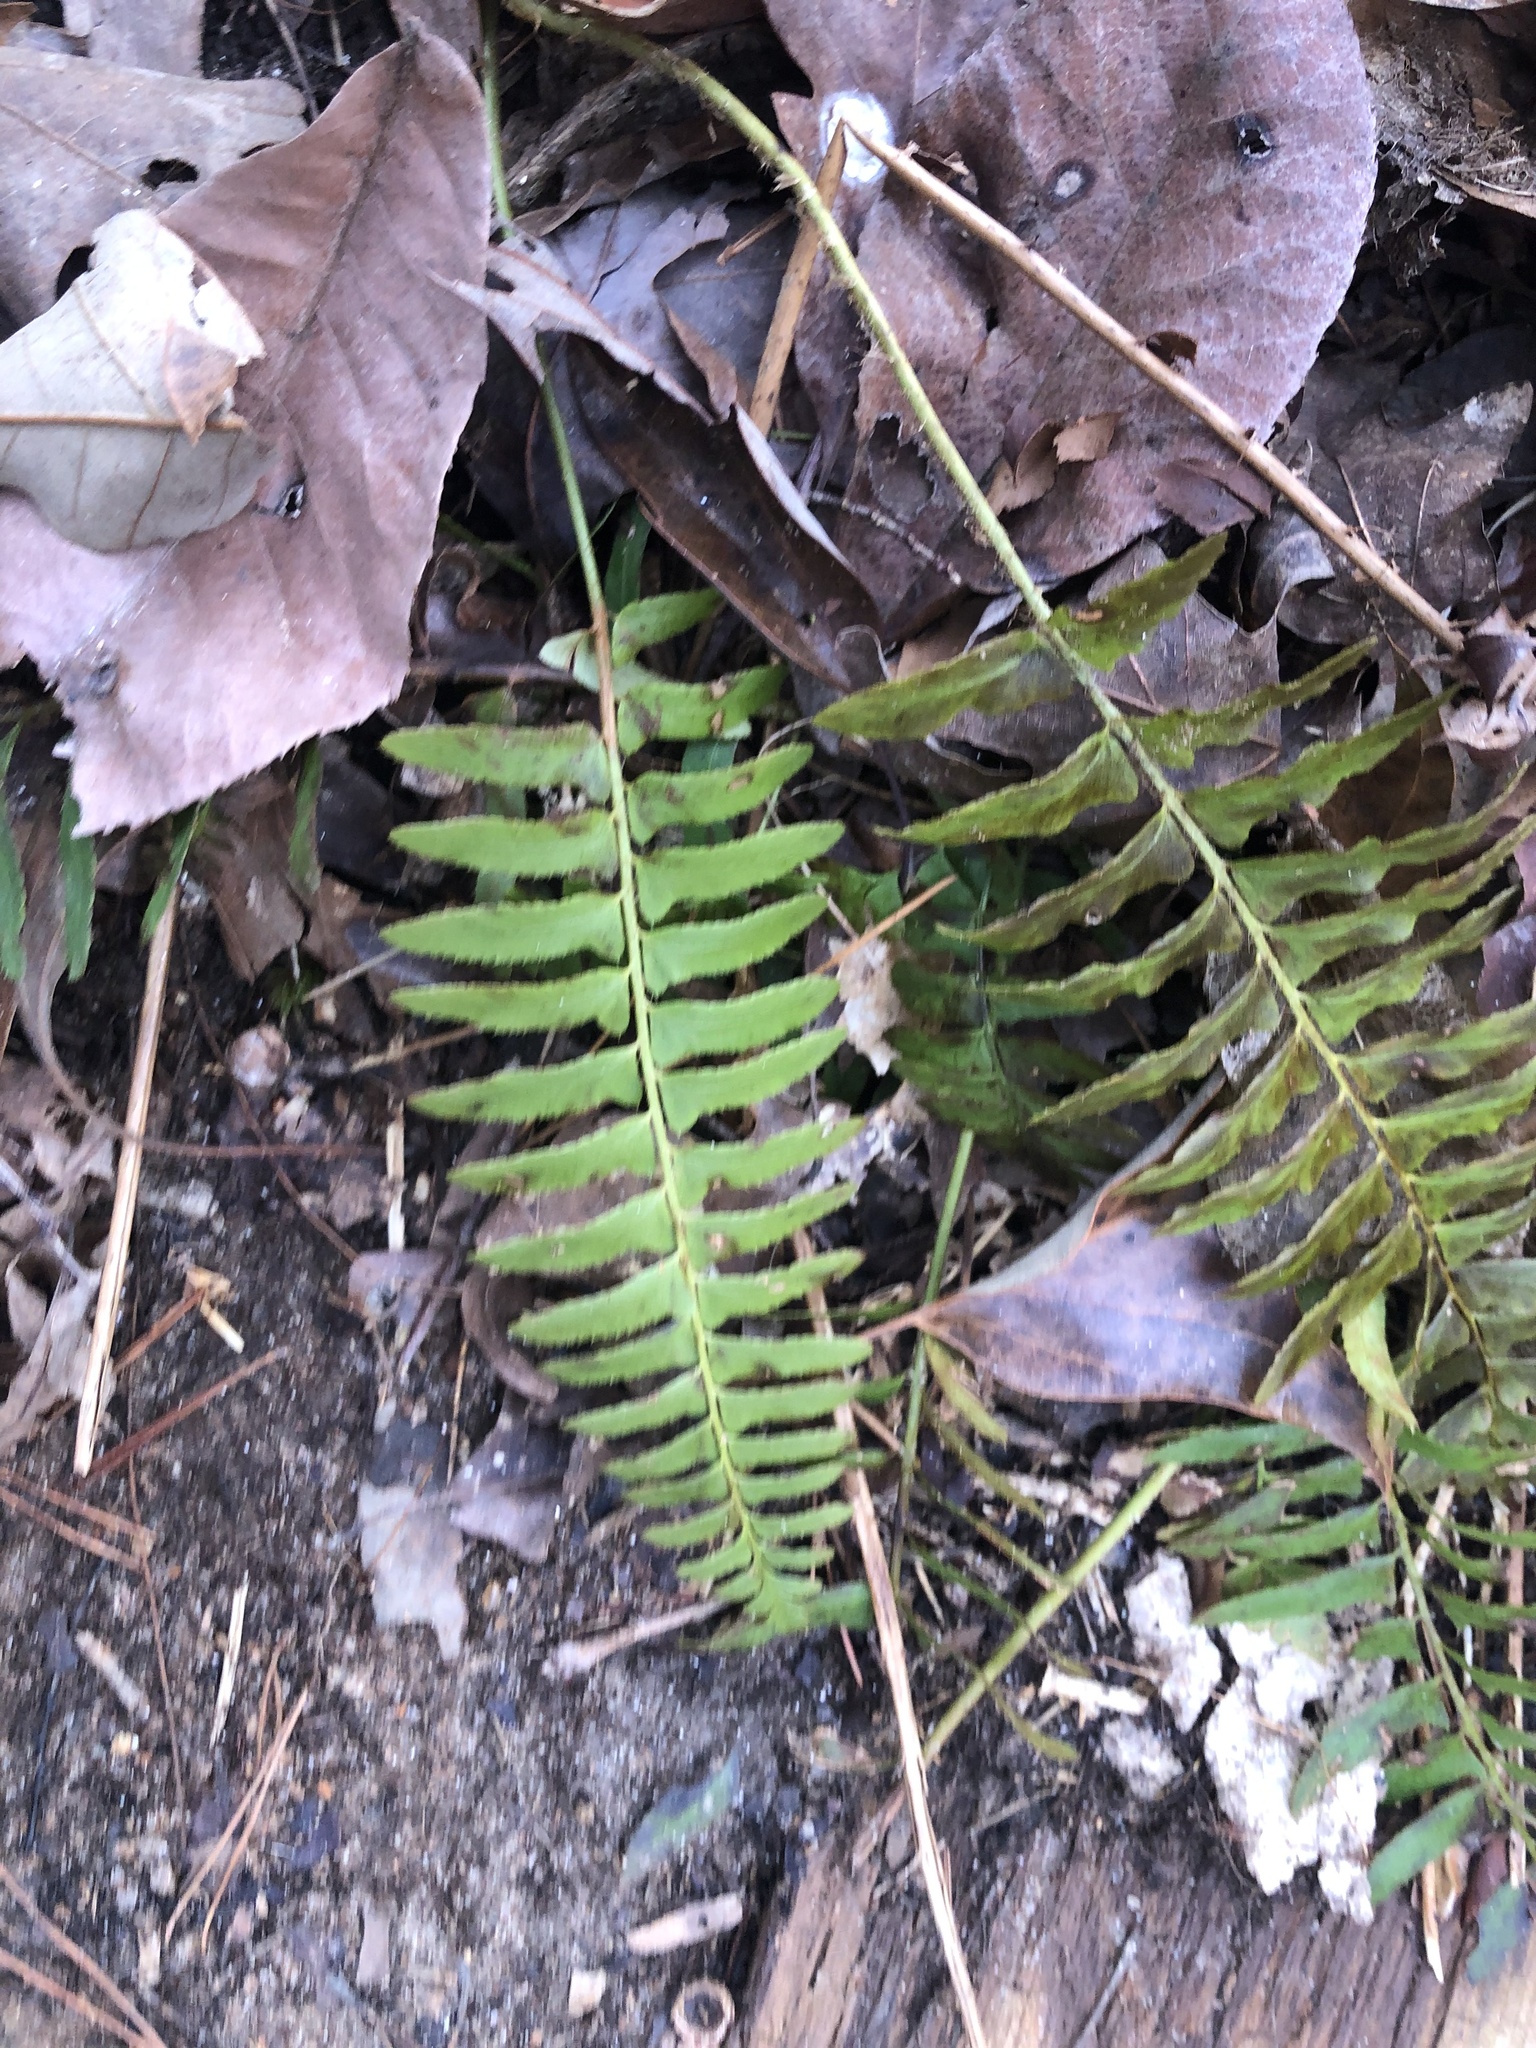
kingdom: Plantae
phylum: Tracheophyta
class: Polypodiopsida
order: Polypodiales
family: Dryopteridaceae
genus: Polystichum
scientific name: Polystichum acrostichoides
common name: Christmas fern
